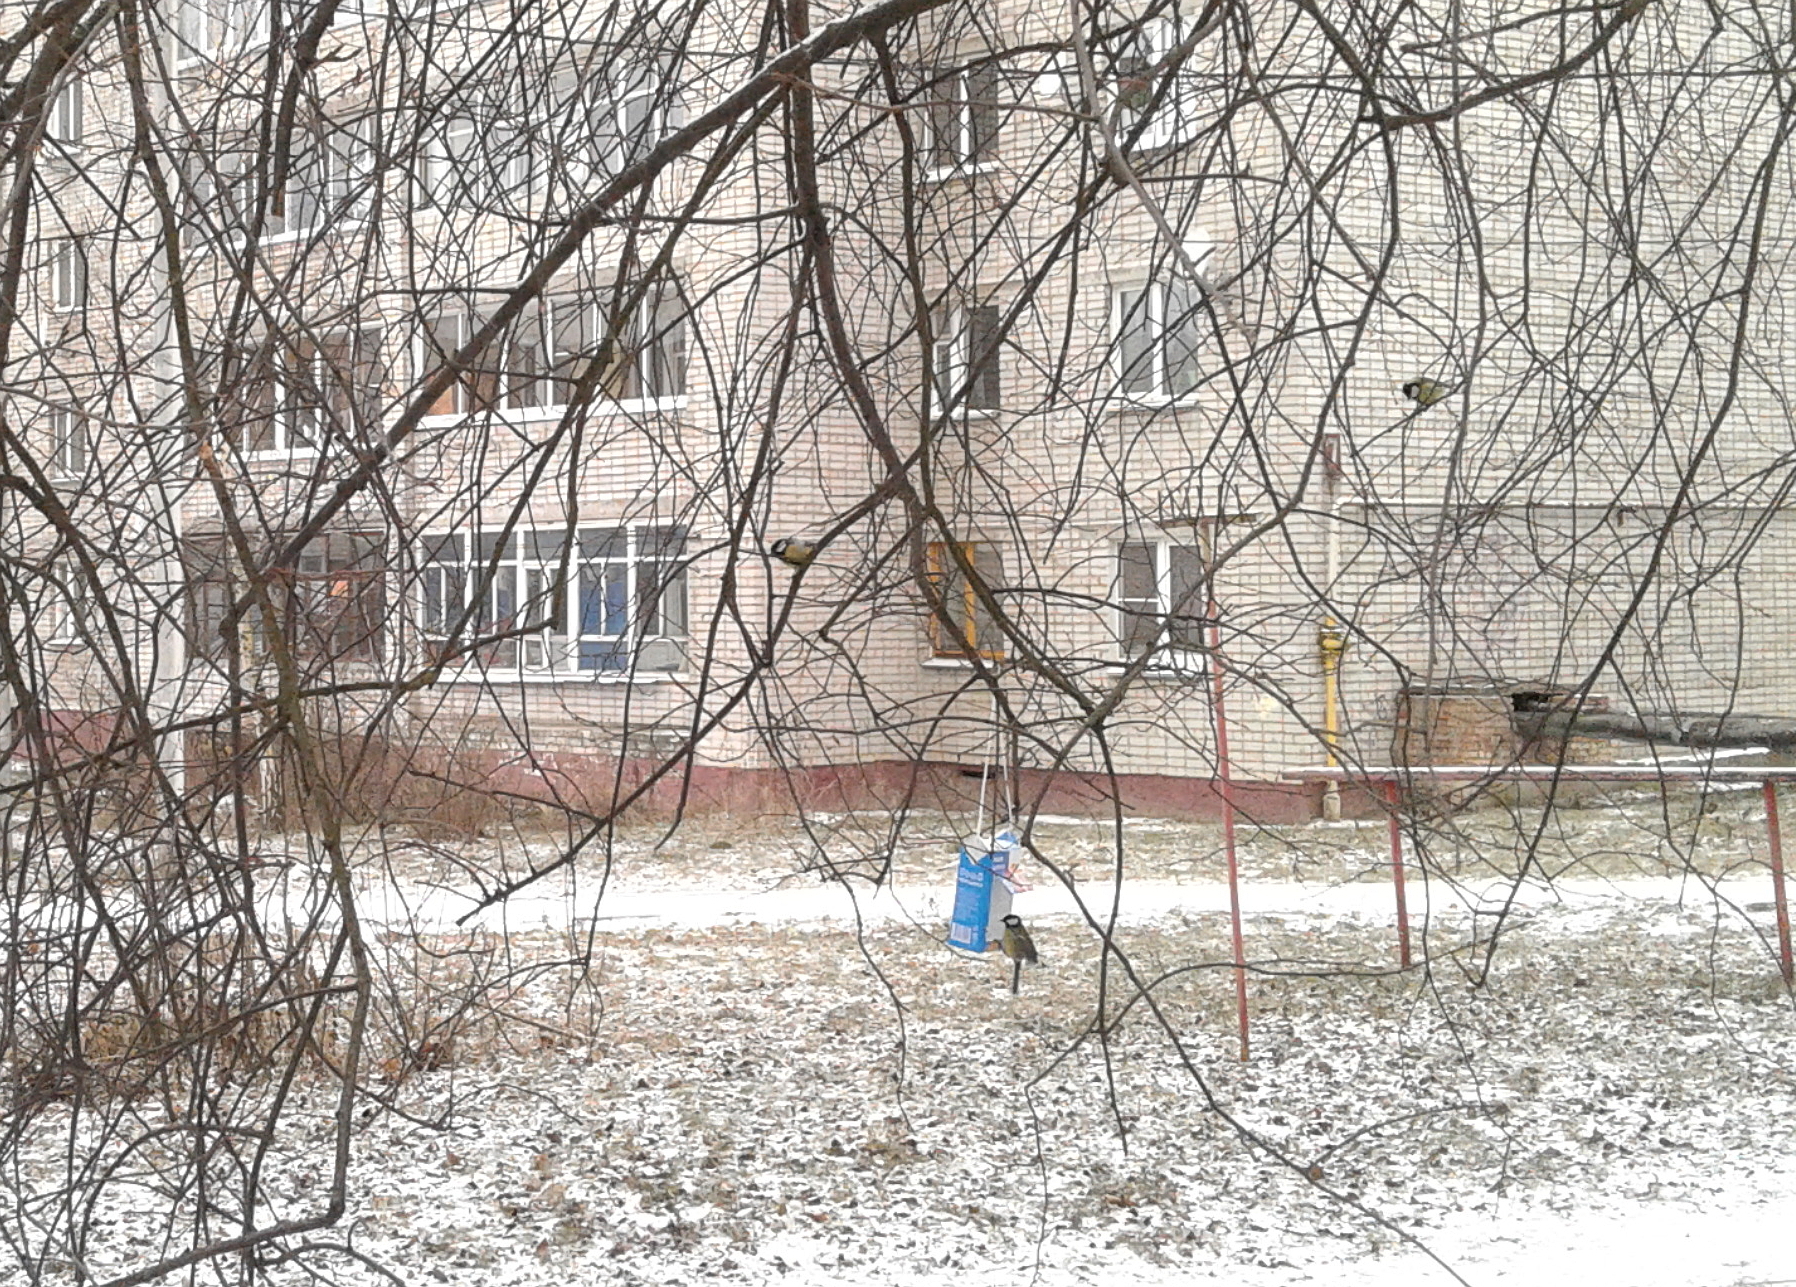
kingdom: Animalia
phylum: Chordata
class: Aves
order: Passeriformes
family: Paridae
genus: Parus
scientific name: Parus major
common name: Great tit
